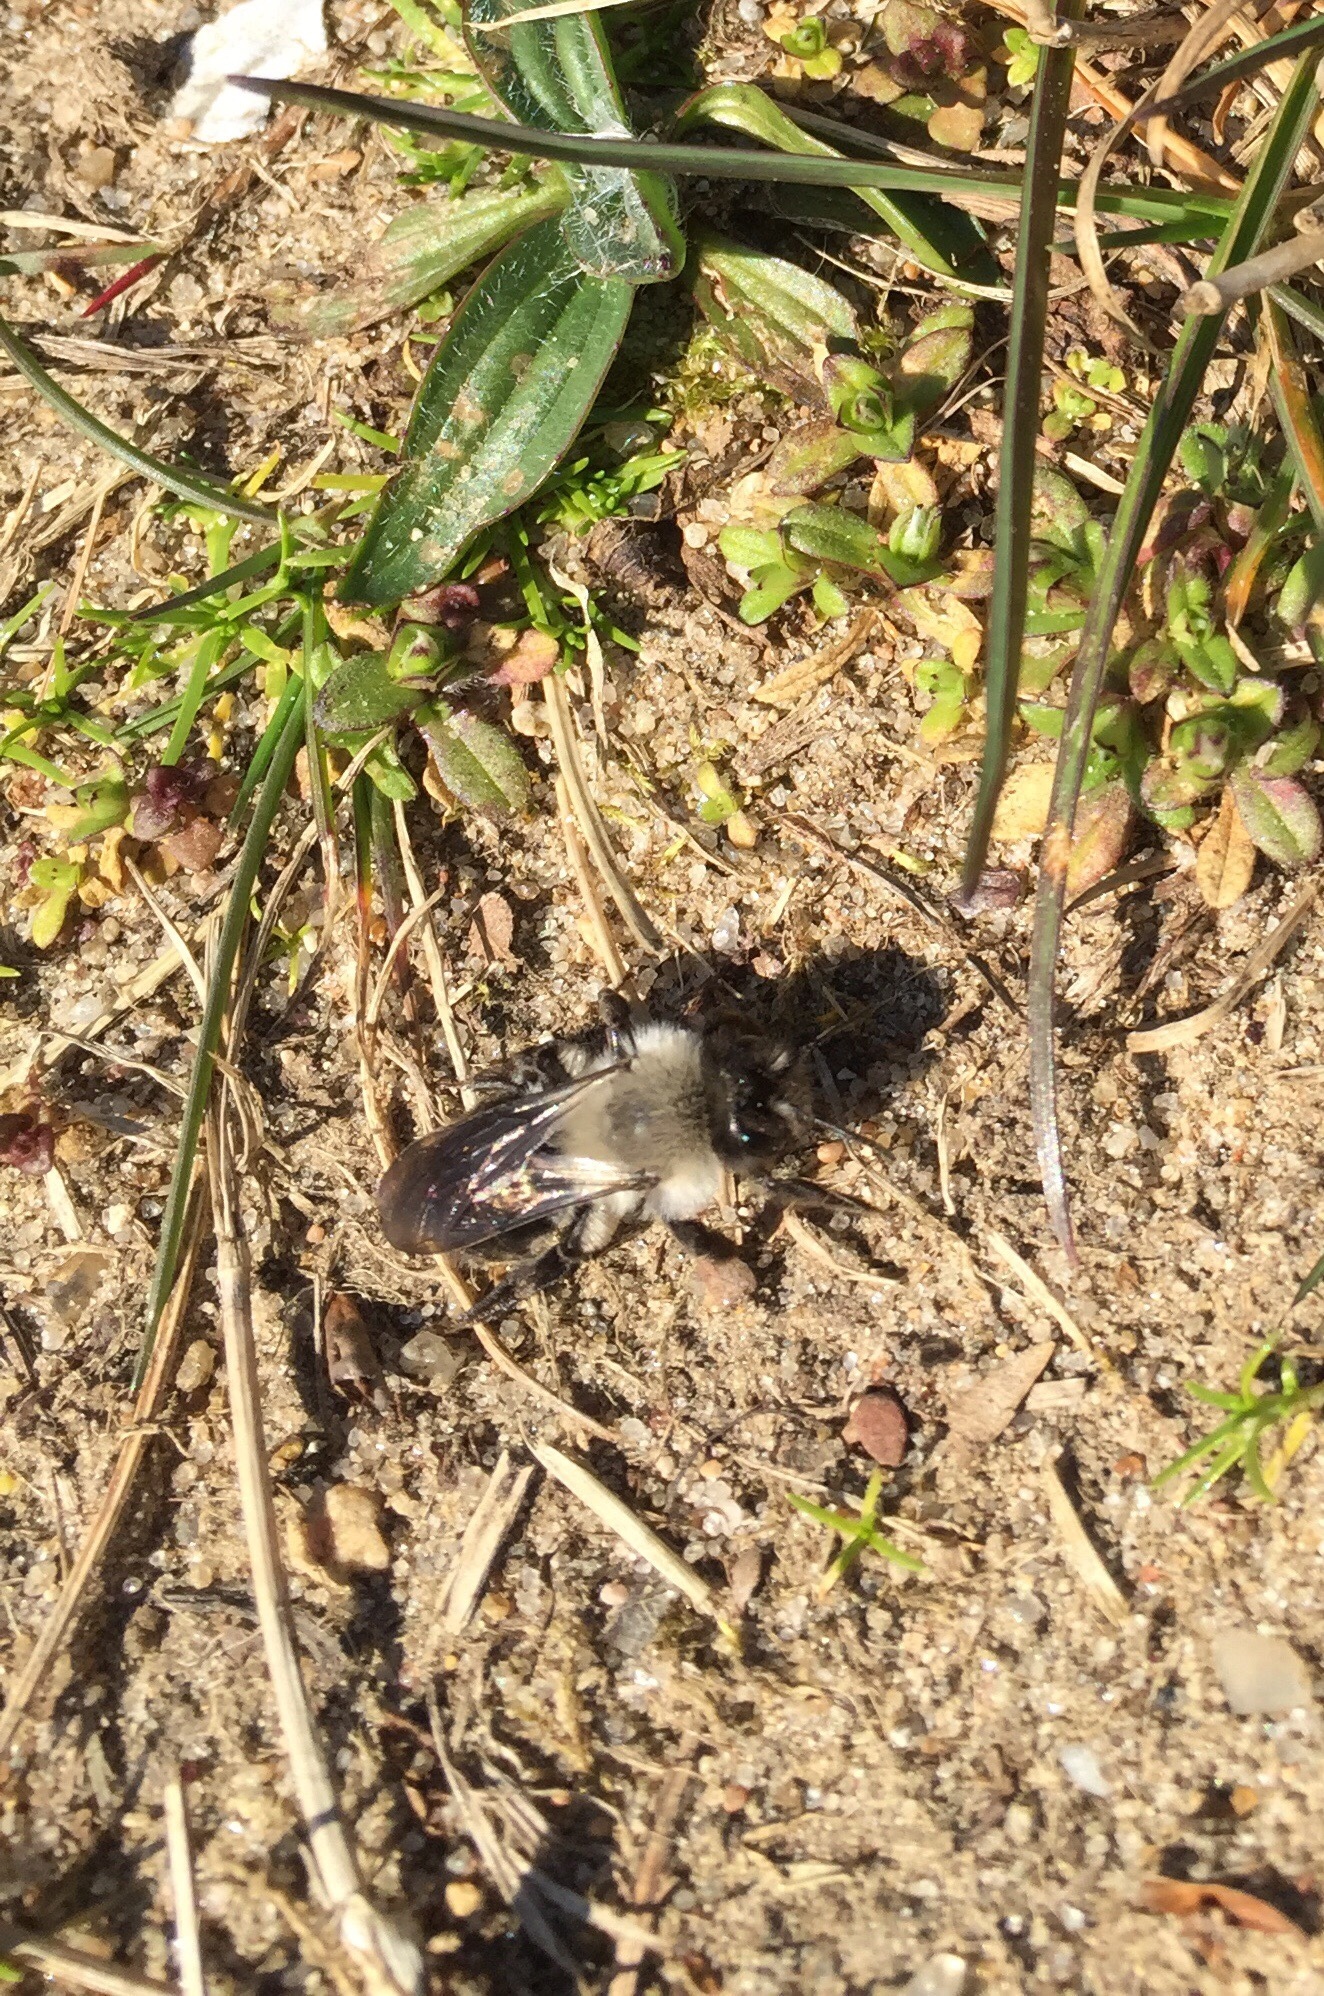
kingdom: Animalia
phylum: Arthropoda
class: Insecta
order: Hymenoptera
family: Andrenidae
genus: Andrena
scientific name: Andrena vaga
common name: Grey-backed mining bee
